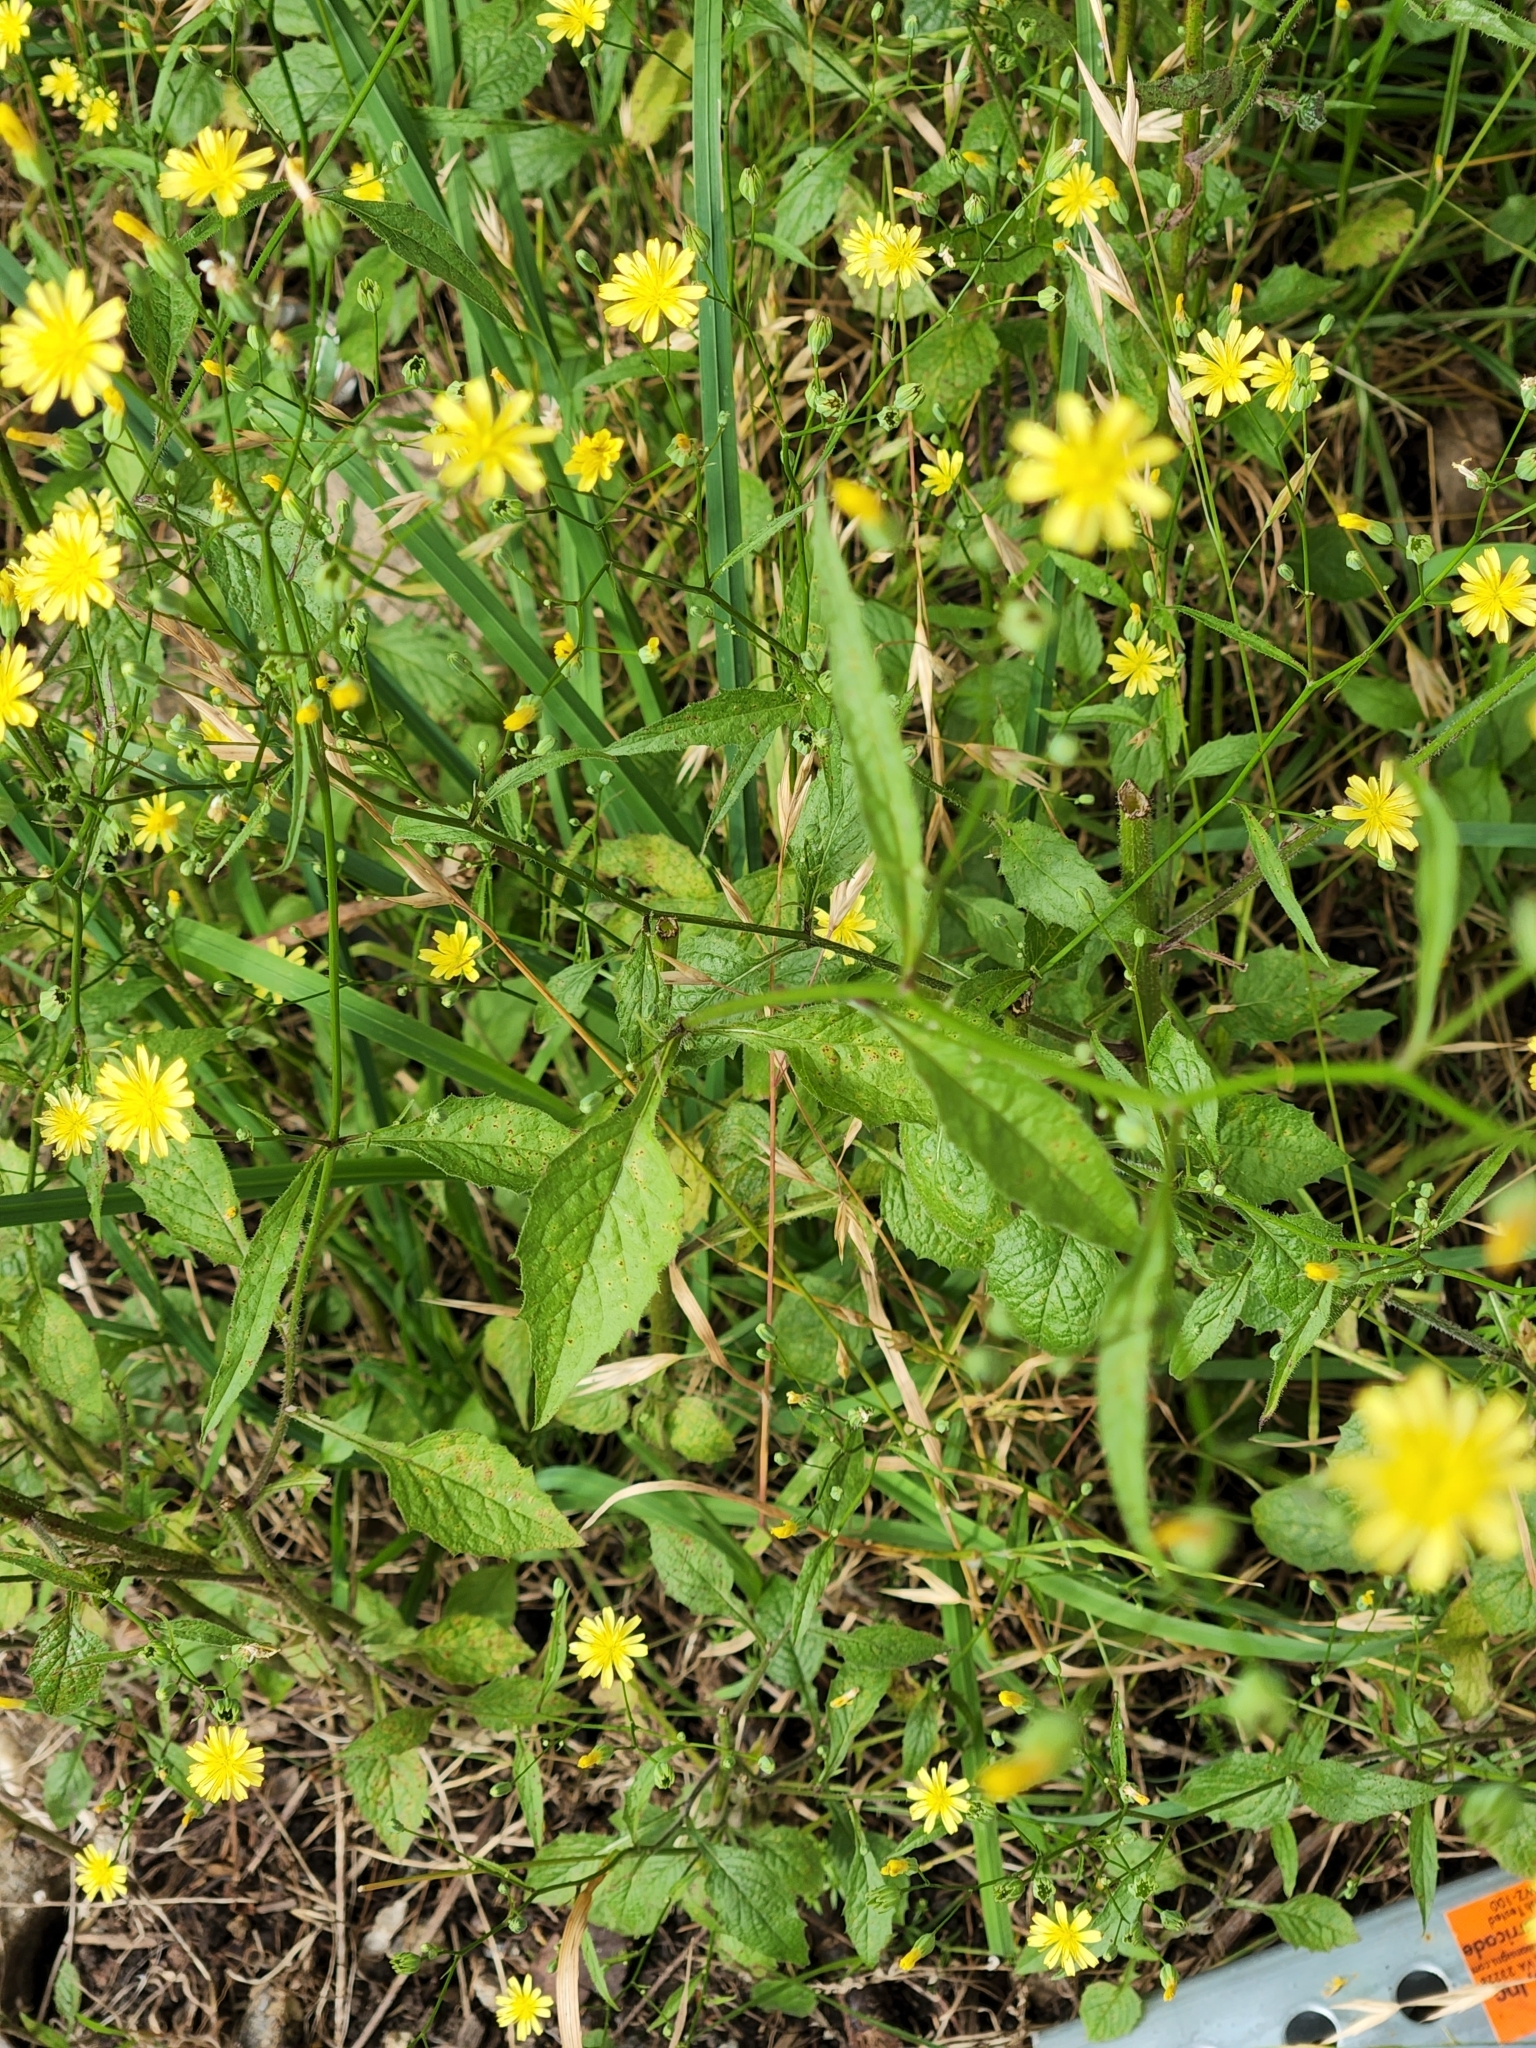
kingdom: Plantae
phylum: Tracheophyta
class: Magnoliopsida
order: Asterales
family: Asteraceae
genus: Lapsana
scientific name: Lapsana communis
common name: Nipplewort
